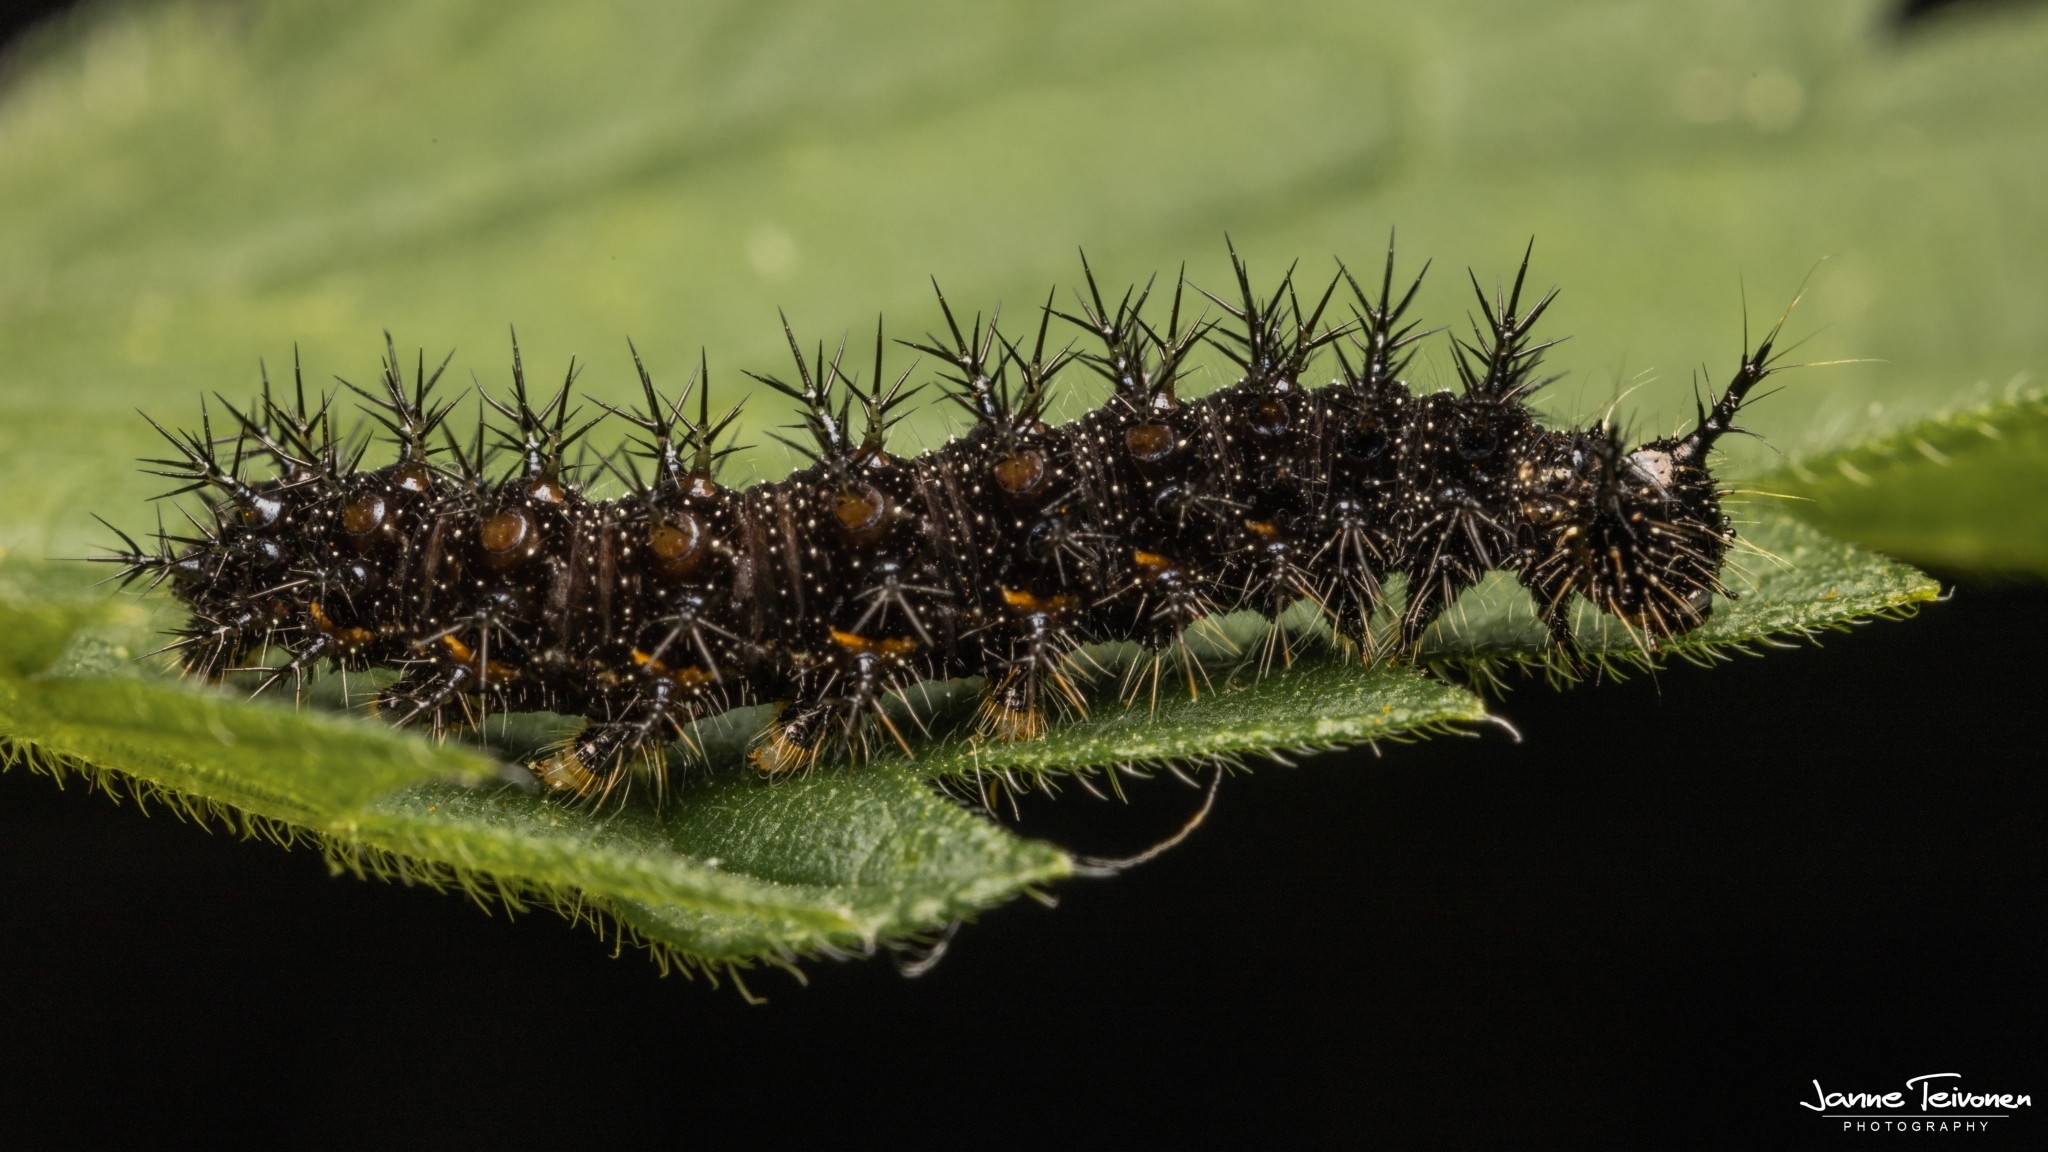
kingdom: Animalia
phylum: Arthropoda
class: Insecta
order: Lepidoptera
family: Nymphalidae
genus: Araschnia
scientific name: Araschnia levana
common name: Map butterfly
